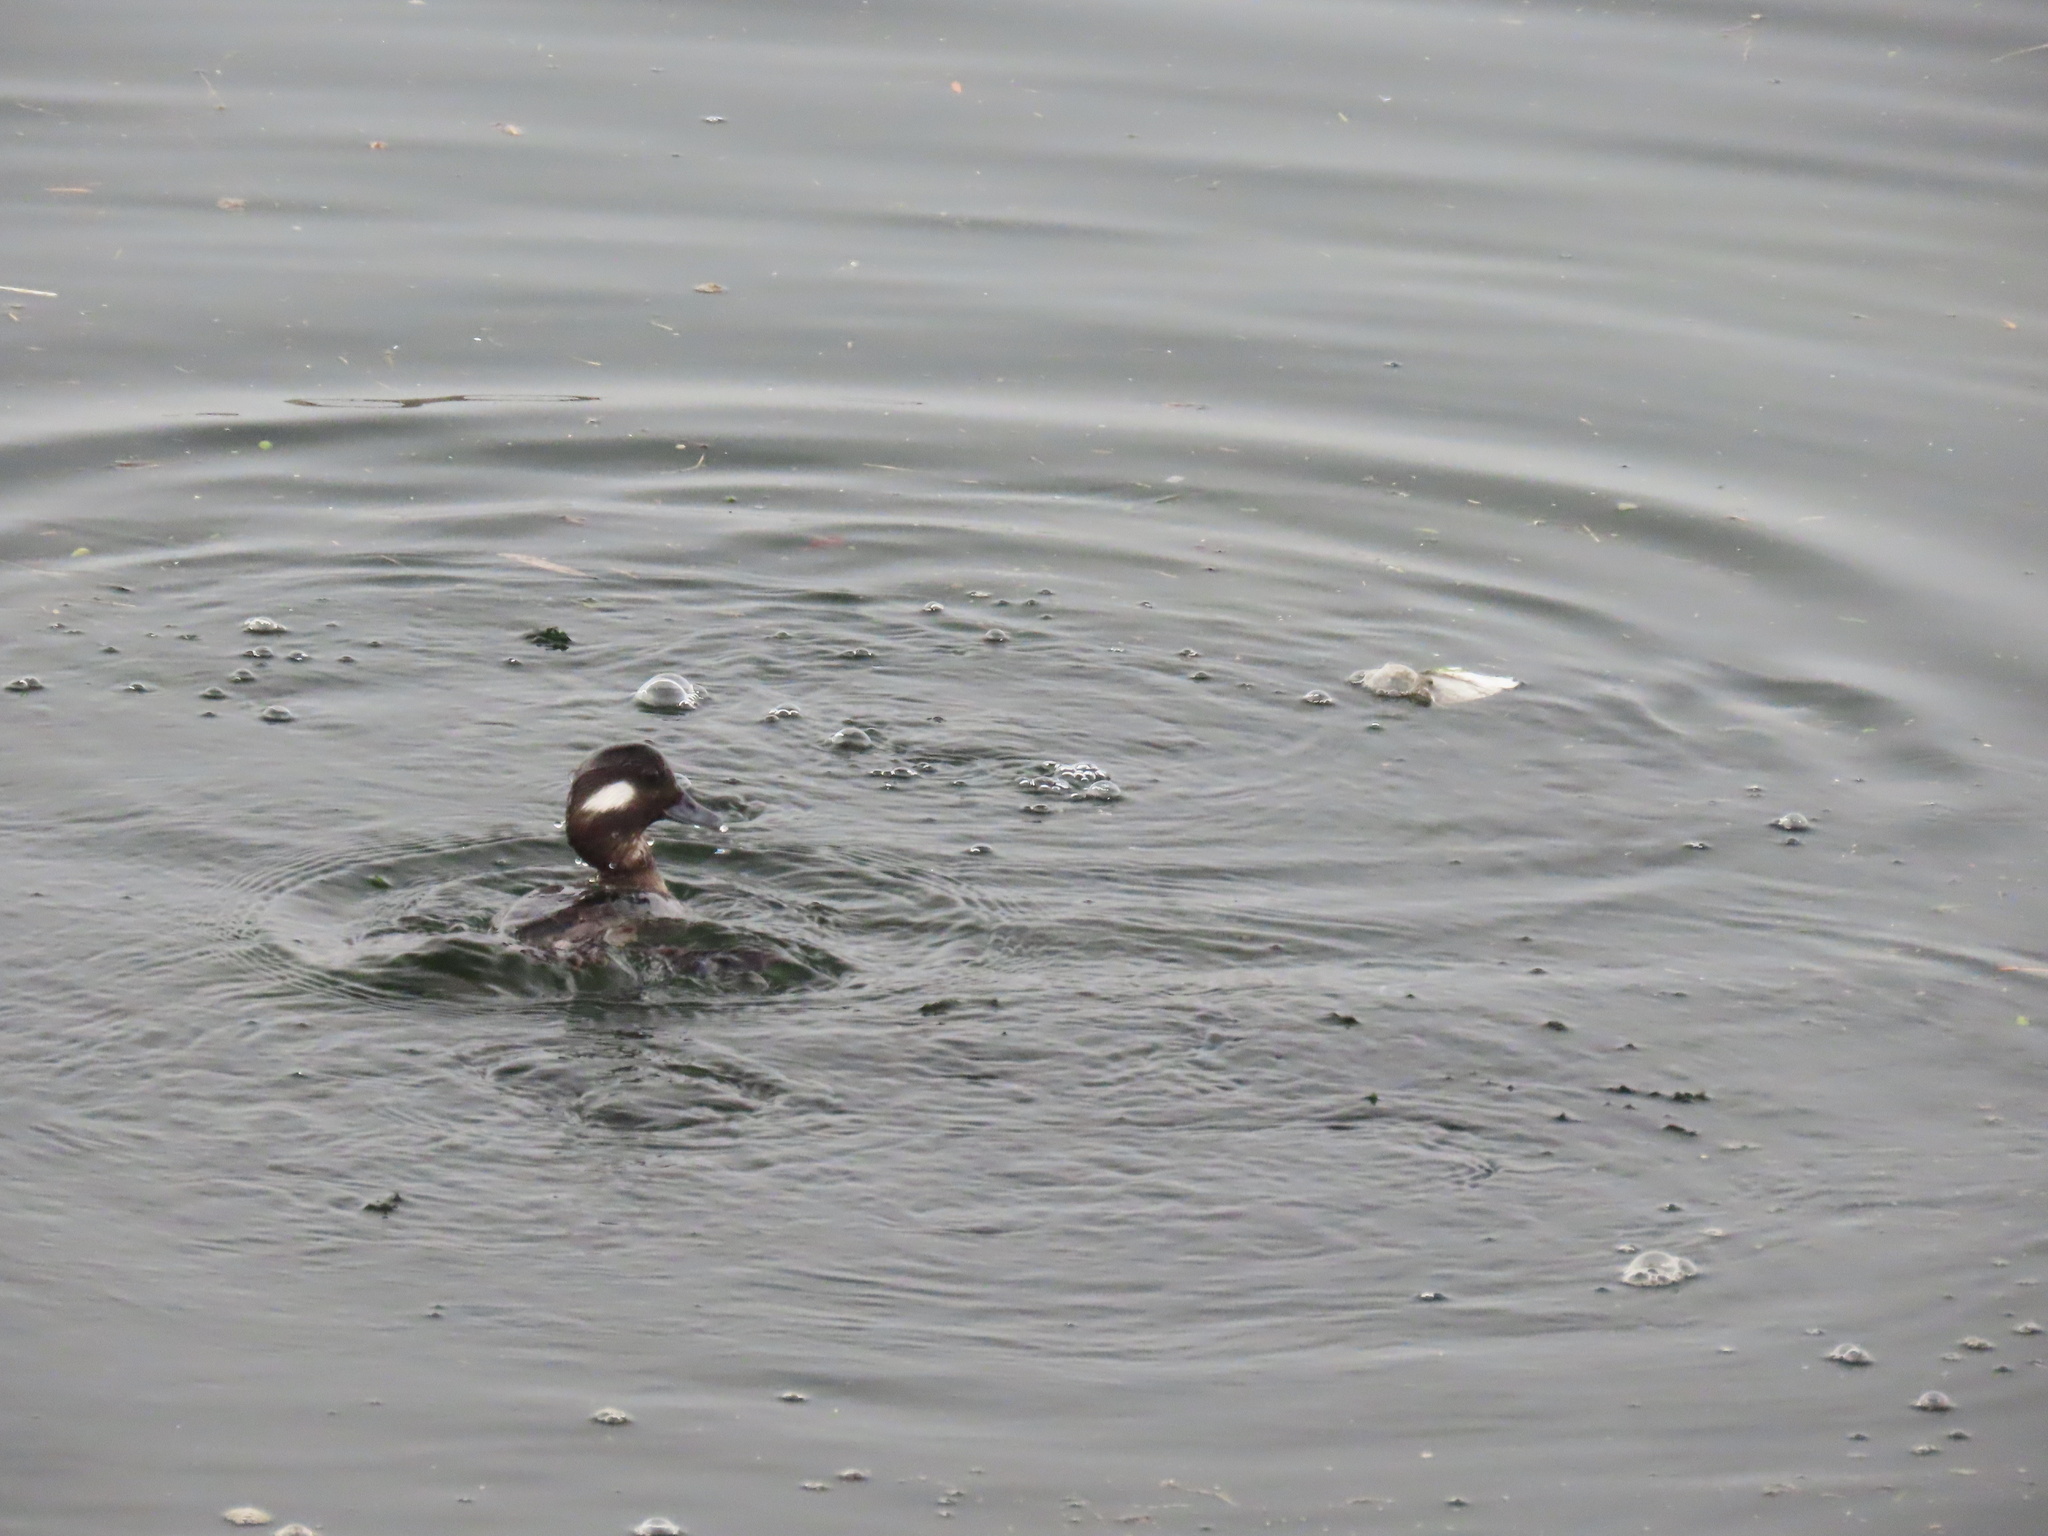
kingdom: Animalia
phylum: Chordata
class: Aves
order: Anseriformes
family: Anatidae
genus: Bucephala
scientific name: Bucephala albeola
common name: Bufflehead
